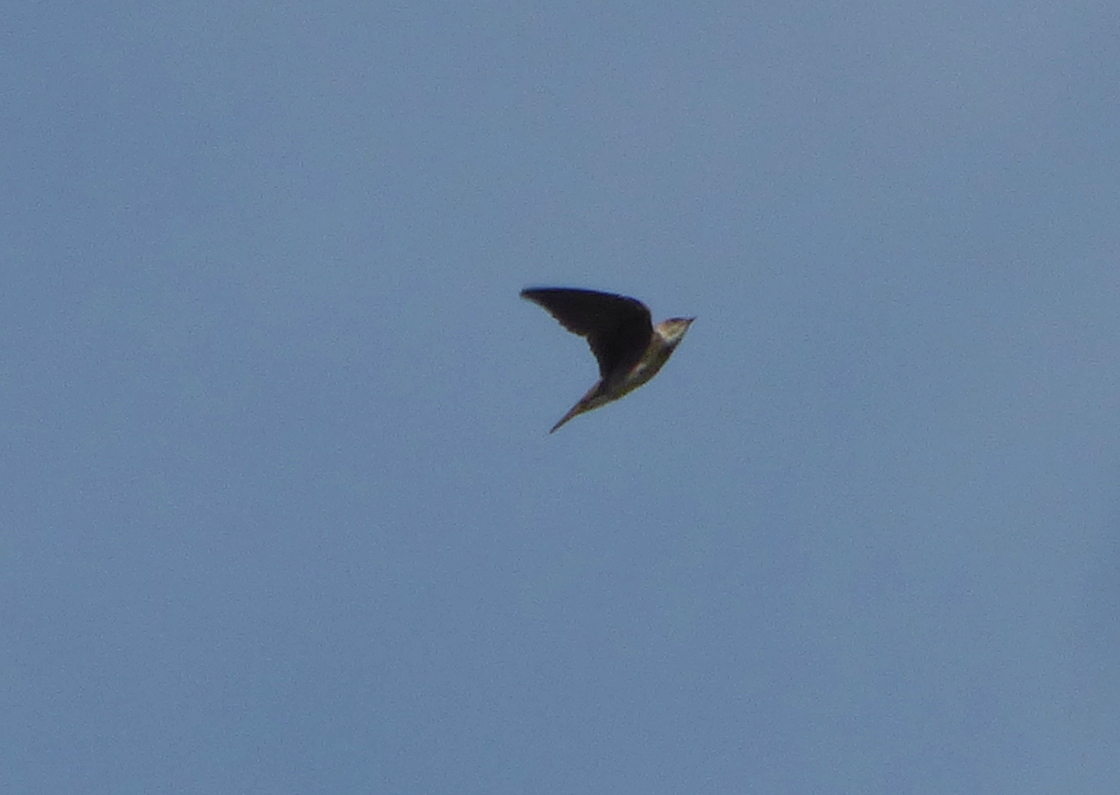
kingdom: Animalia
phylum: Chordata
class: Aves
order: Passeriformes
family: Hirundinidae
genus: Progne
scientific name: Progne tapera
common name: Brown-chested martin
